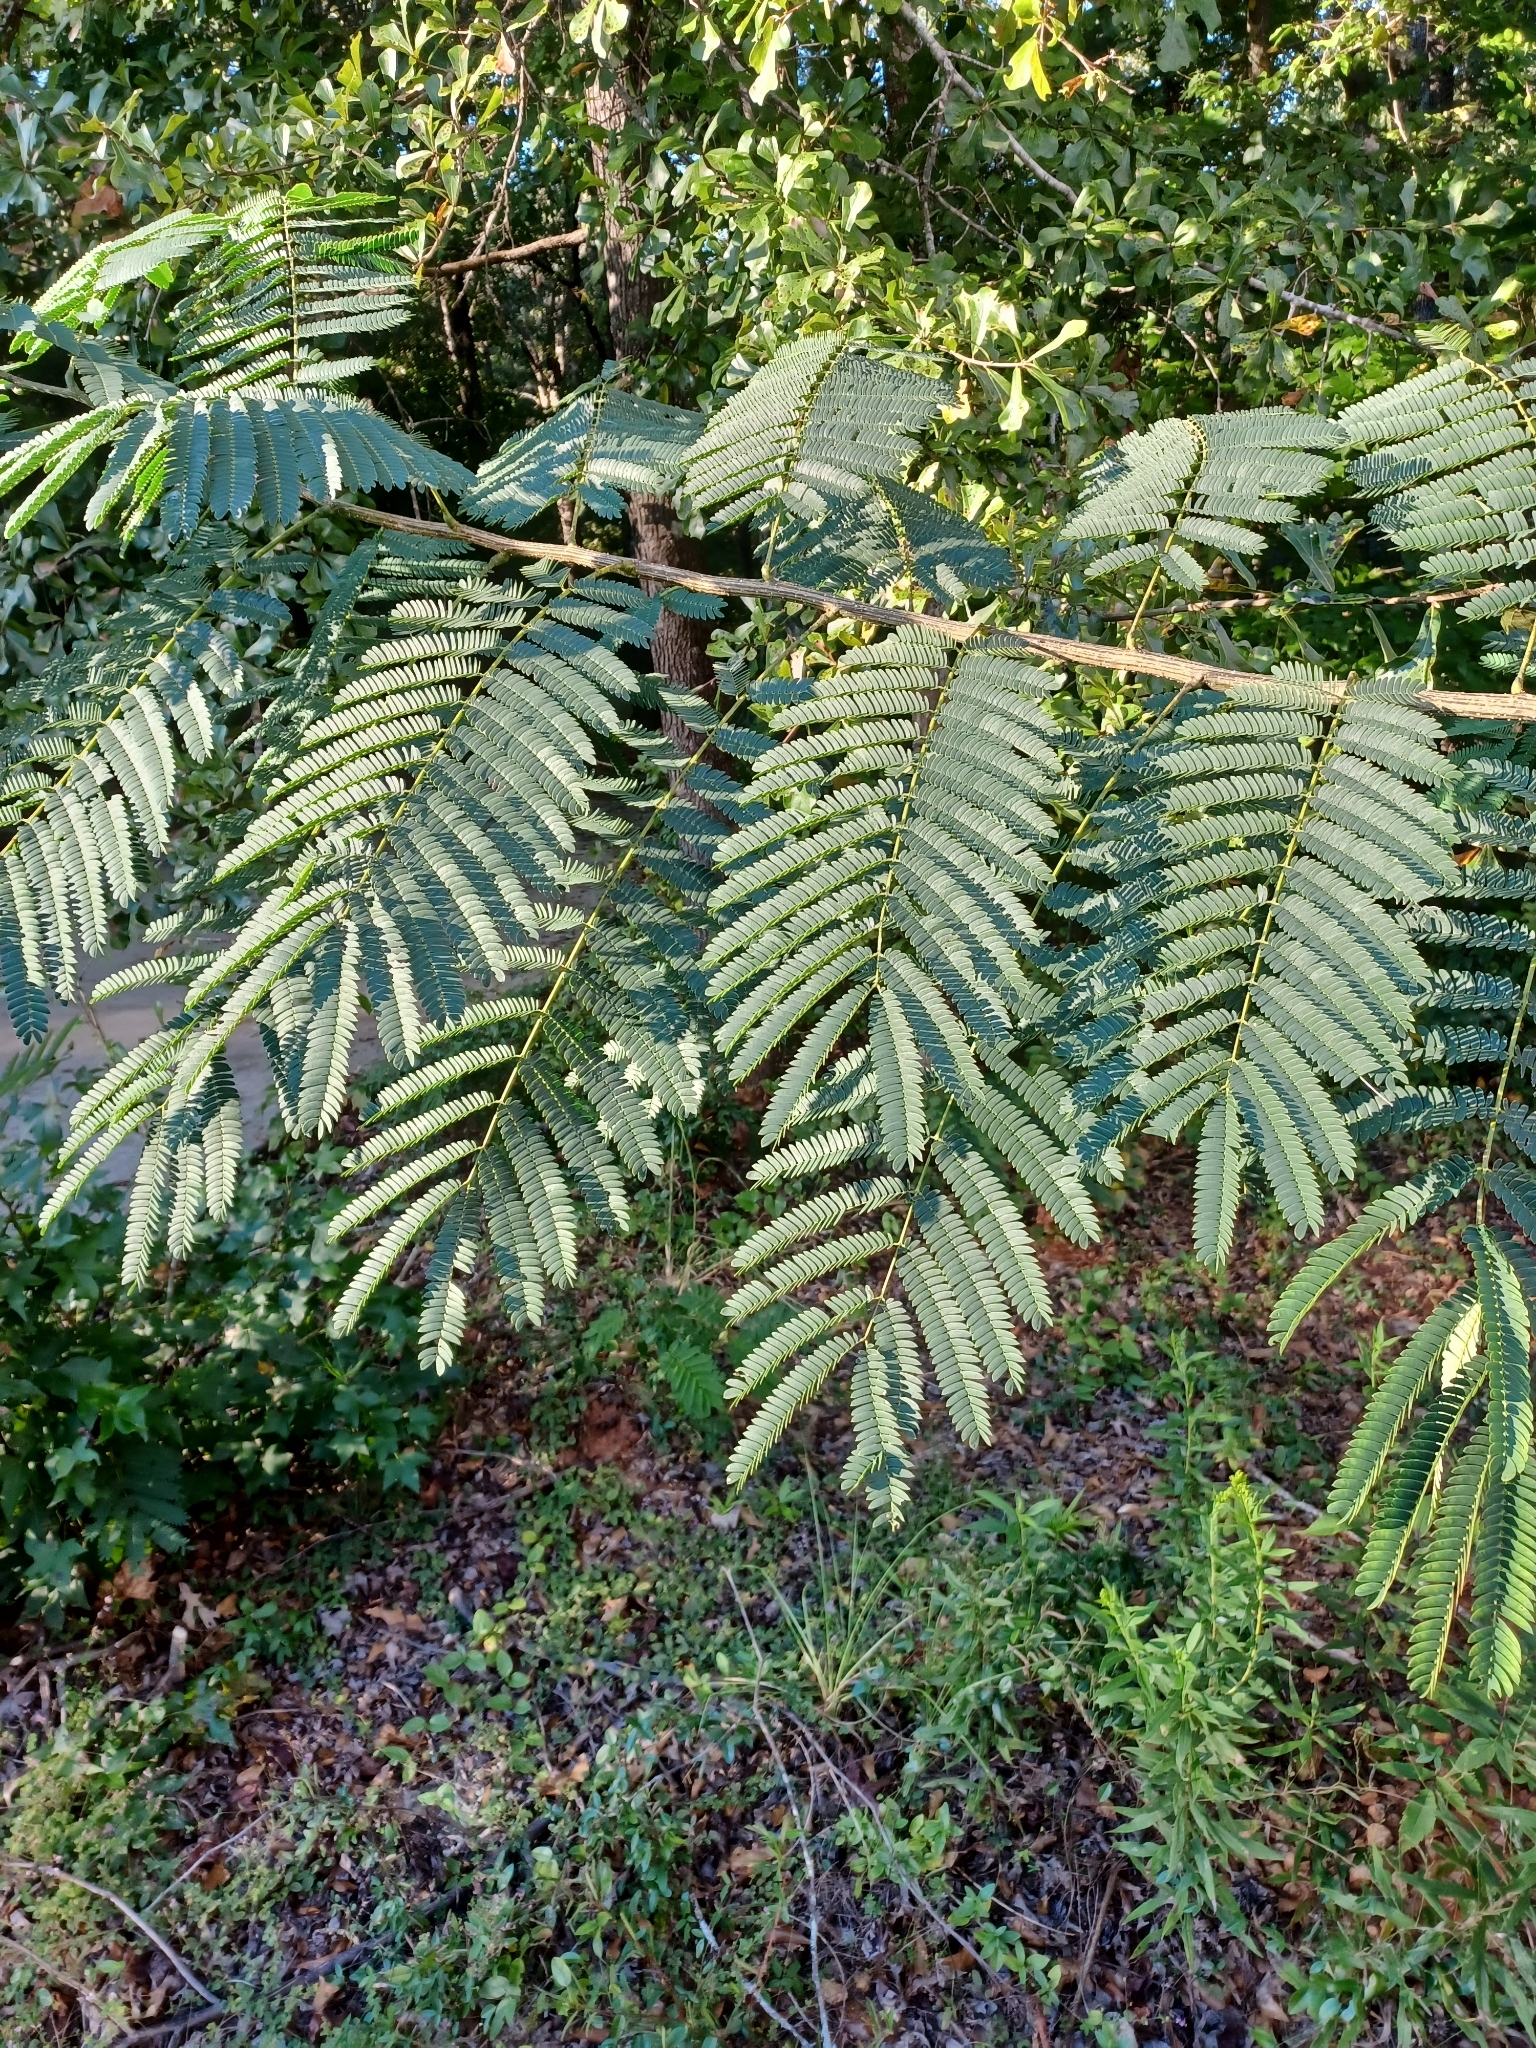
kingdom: Plantae
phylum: Tracheophyta
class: Magnoliopsida
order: Fabales
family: Fabaceae
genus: Albizia
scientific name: Albizia julibrissin
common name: Silktree
